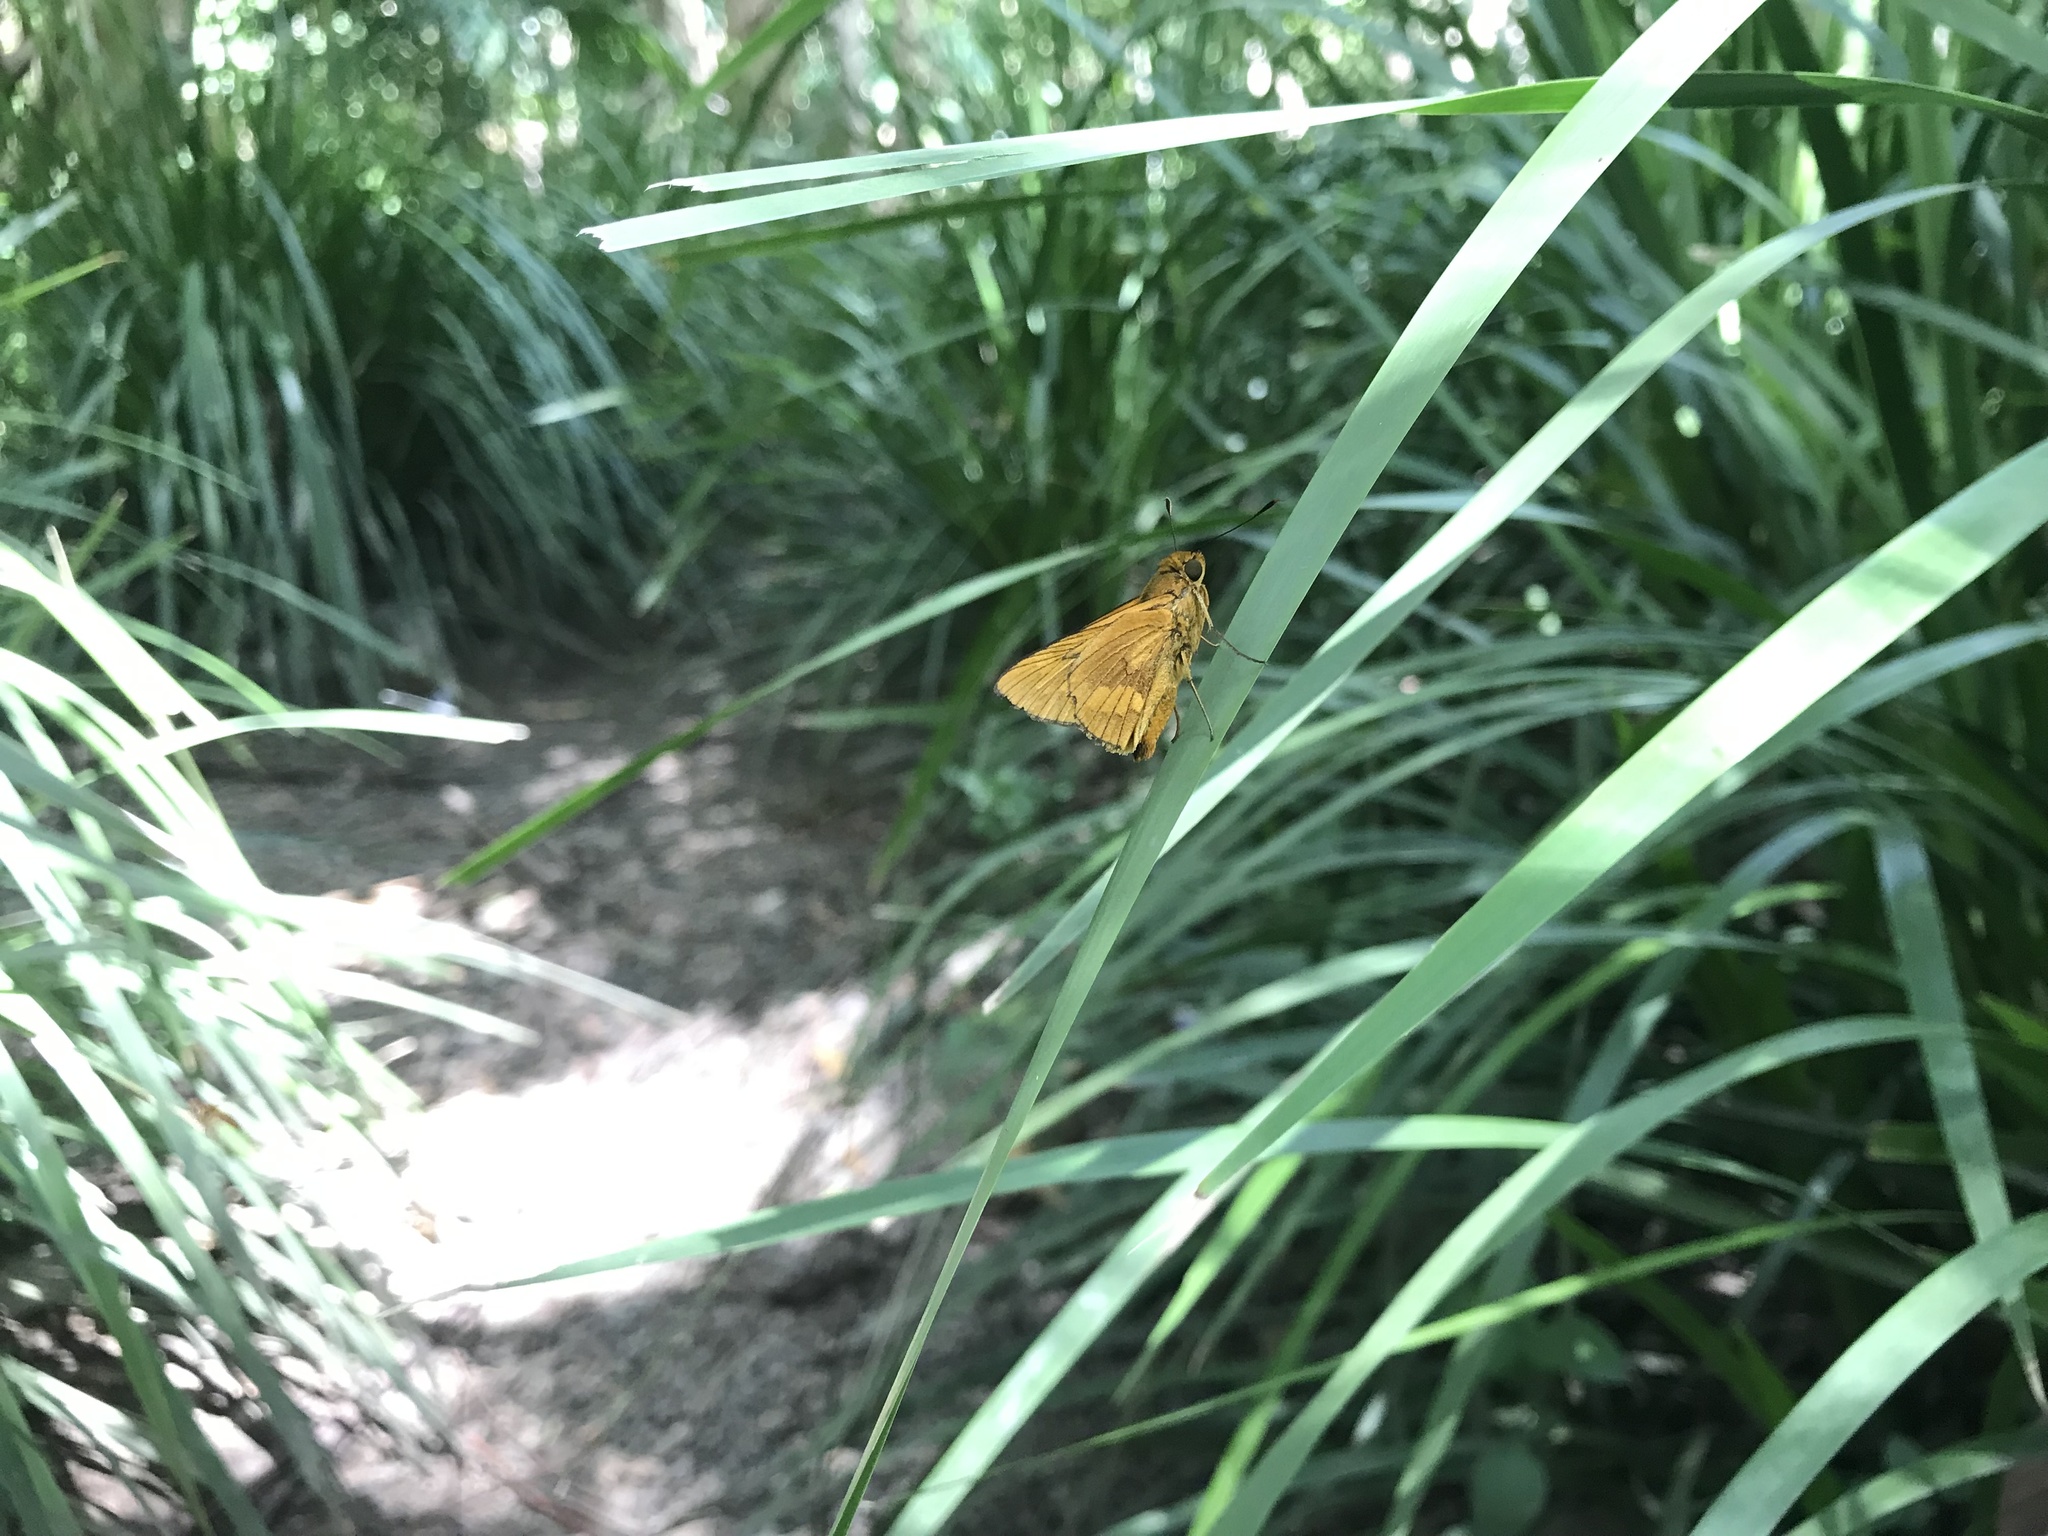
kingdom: Animalia
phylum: Arthropoda
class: Insecta
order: Lepidoptera
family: Hesperiidae
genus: Cephrenes
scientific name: Cephrenes augiades
